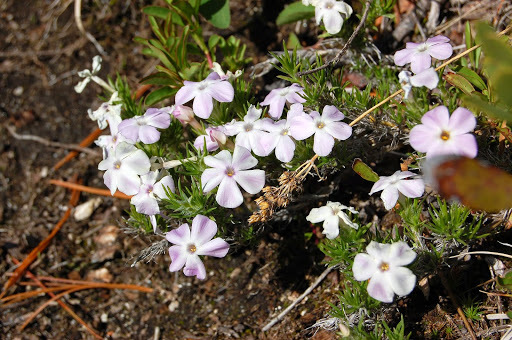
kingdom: Plantae
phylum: Tracheophyta
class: Magnoliopsida
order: Ericales
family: Polemoniaceae
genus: Phlox
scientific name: Phlox diffusa
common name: Mat phlox
